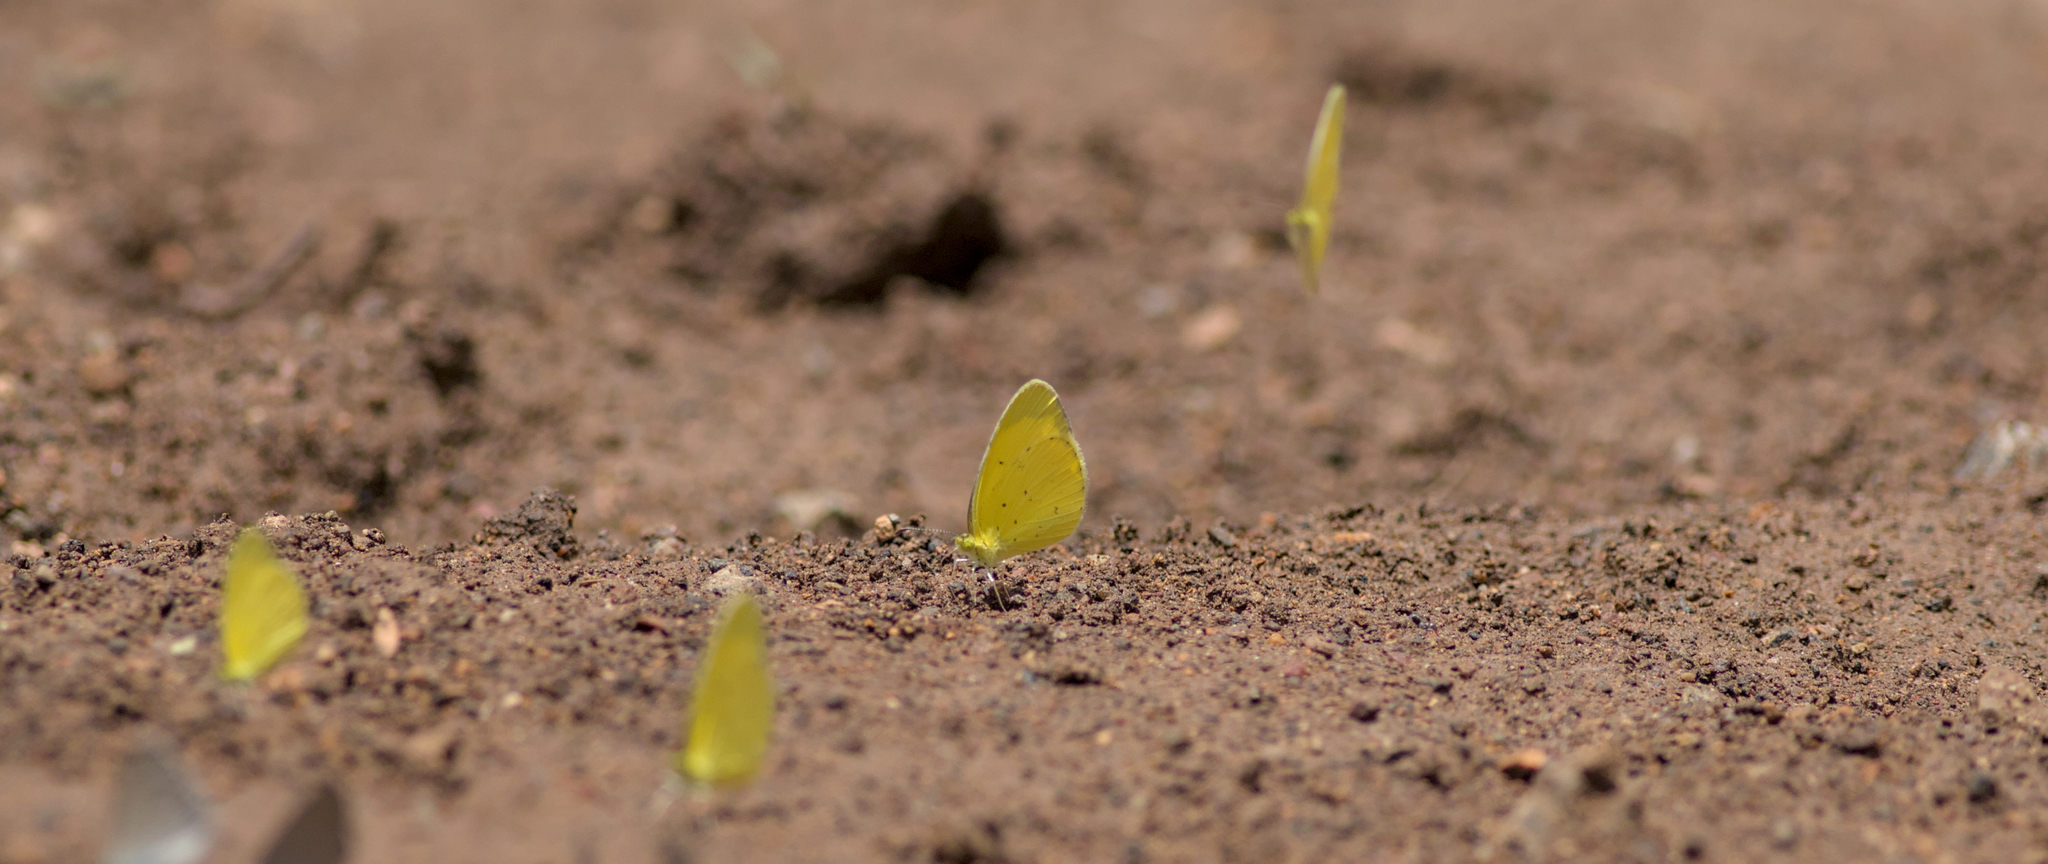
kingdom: Animalia
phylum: Arthropoda
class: Insecta
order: Lepidoptera
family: Pieridae
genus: Eurema
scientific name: Eurema smilax
